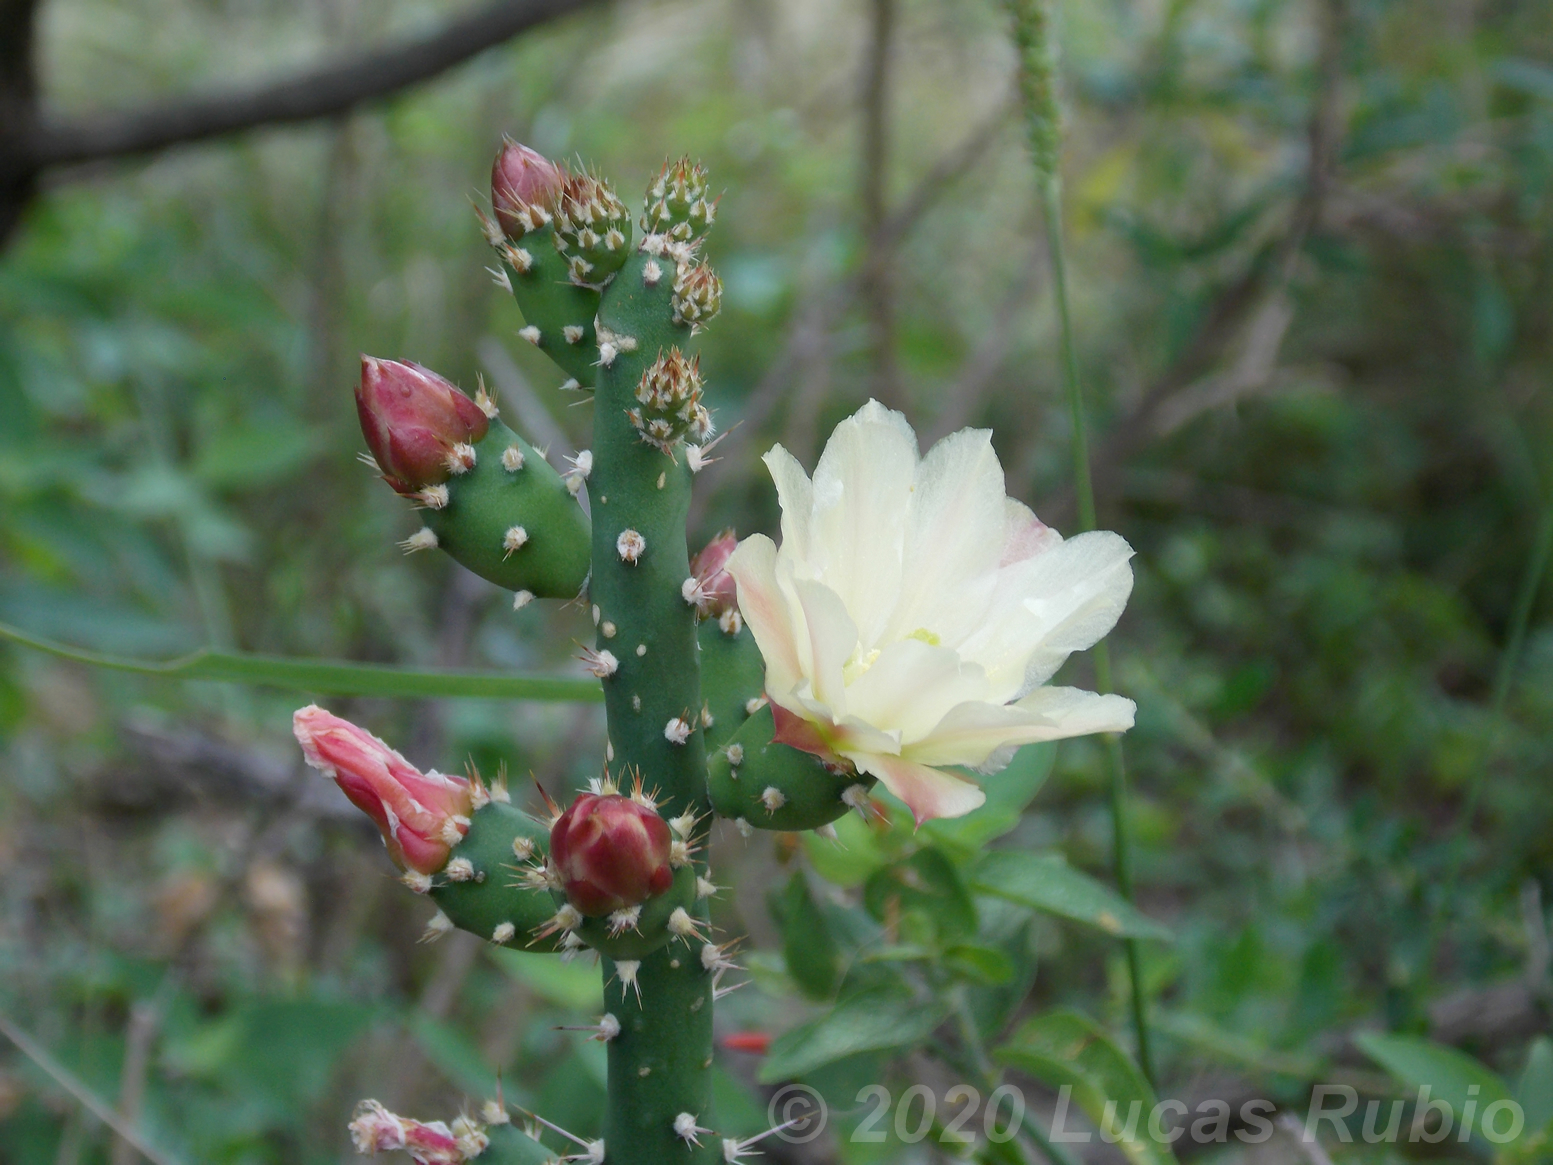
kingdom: Plantae
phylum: Tracheophyta
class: Magnoliopsida
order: Caryophyllales
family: Cactaceae
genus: Salmonopuntia
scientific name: Salmonopuntia salmiana
